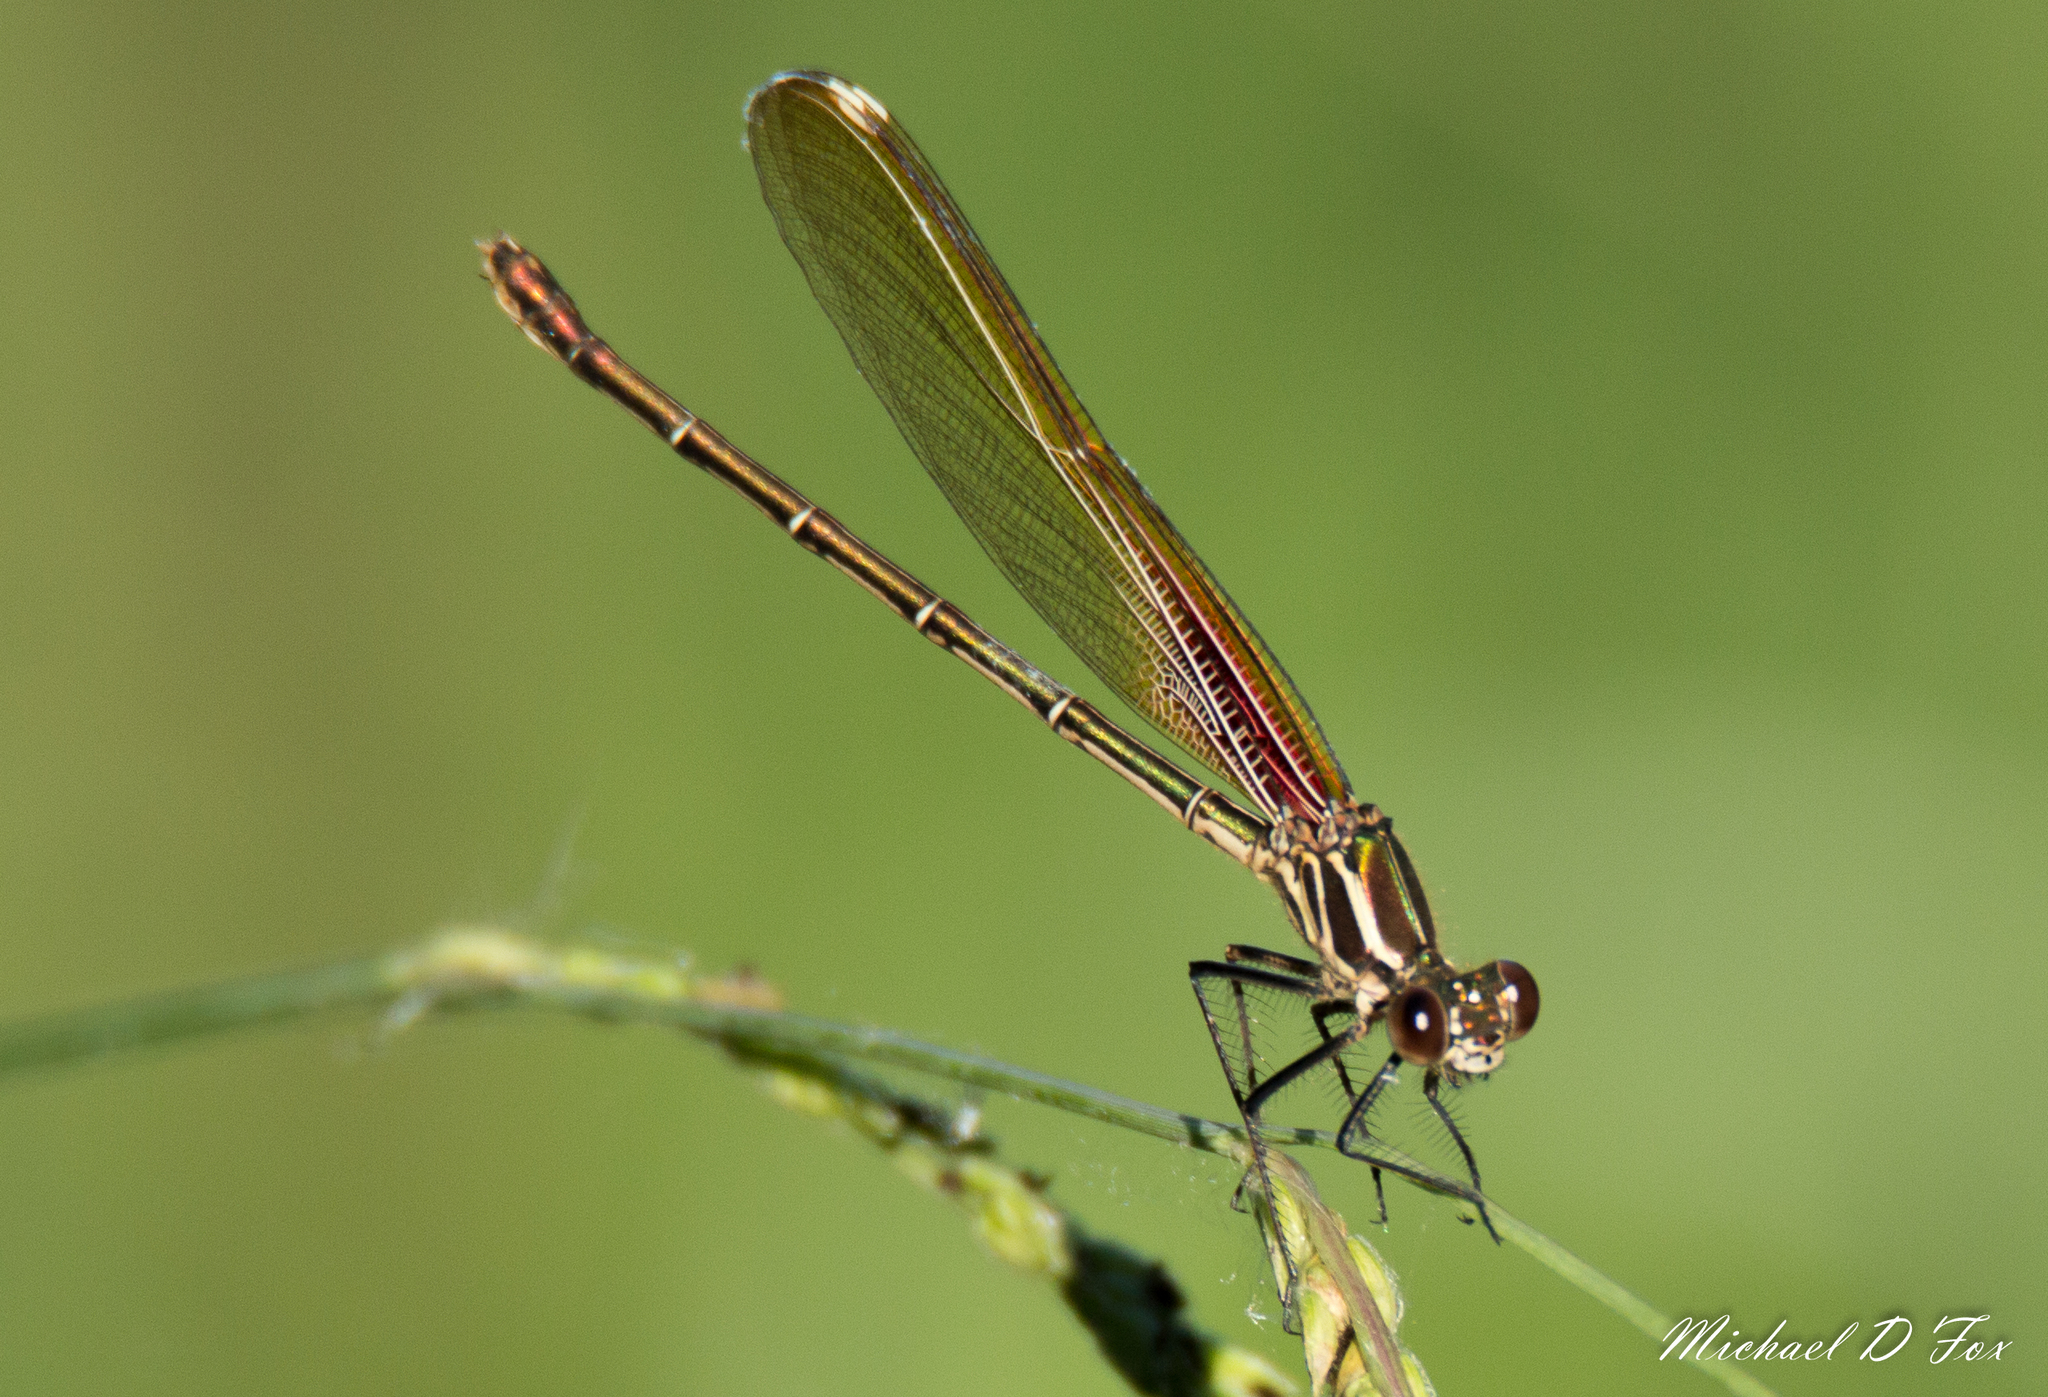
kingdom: Animalia
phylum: Arthropoda
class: Insecta
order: Odonata
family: Calopterygidae
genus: Hetaerina
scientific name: Hetaerina americana
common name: American rubyspot
